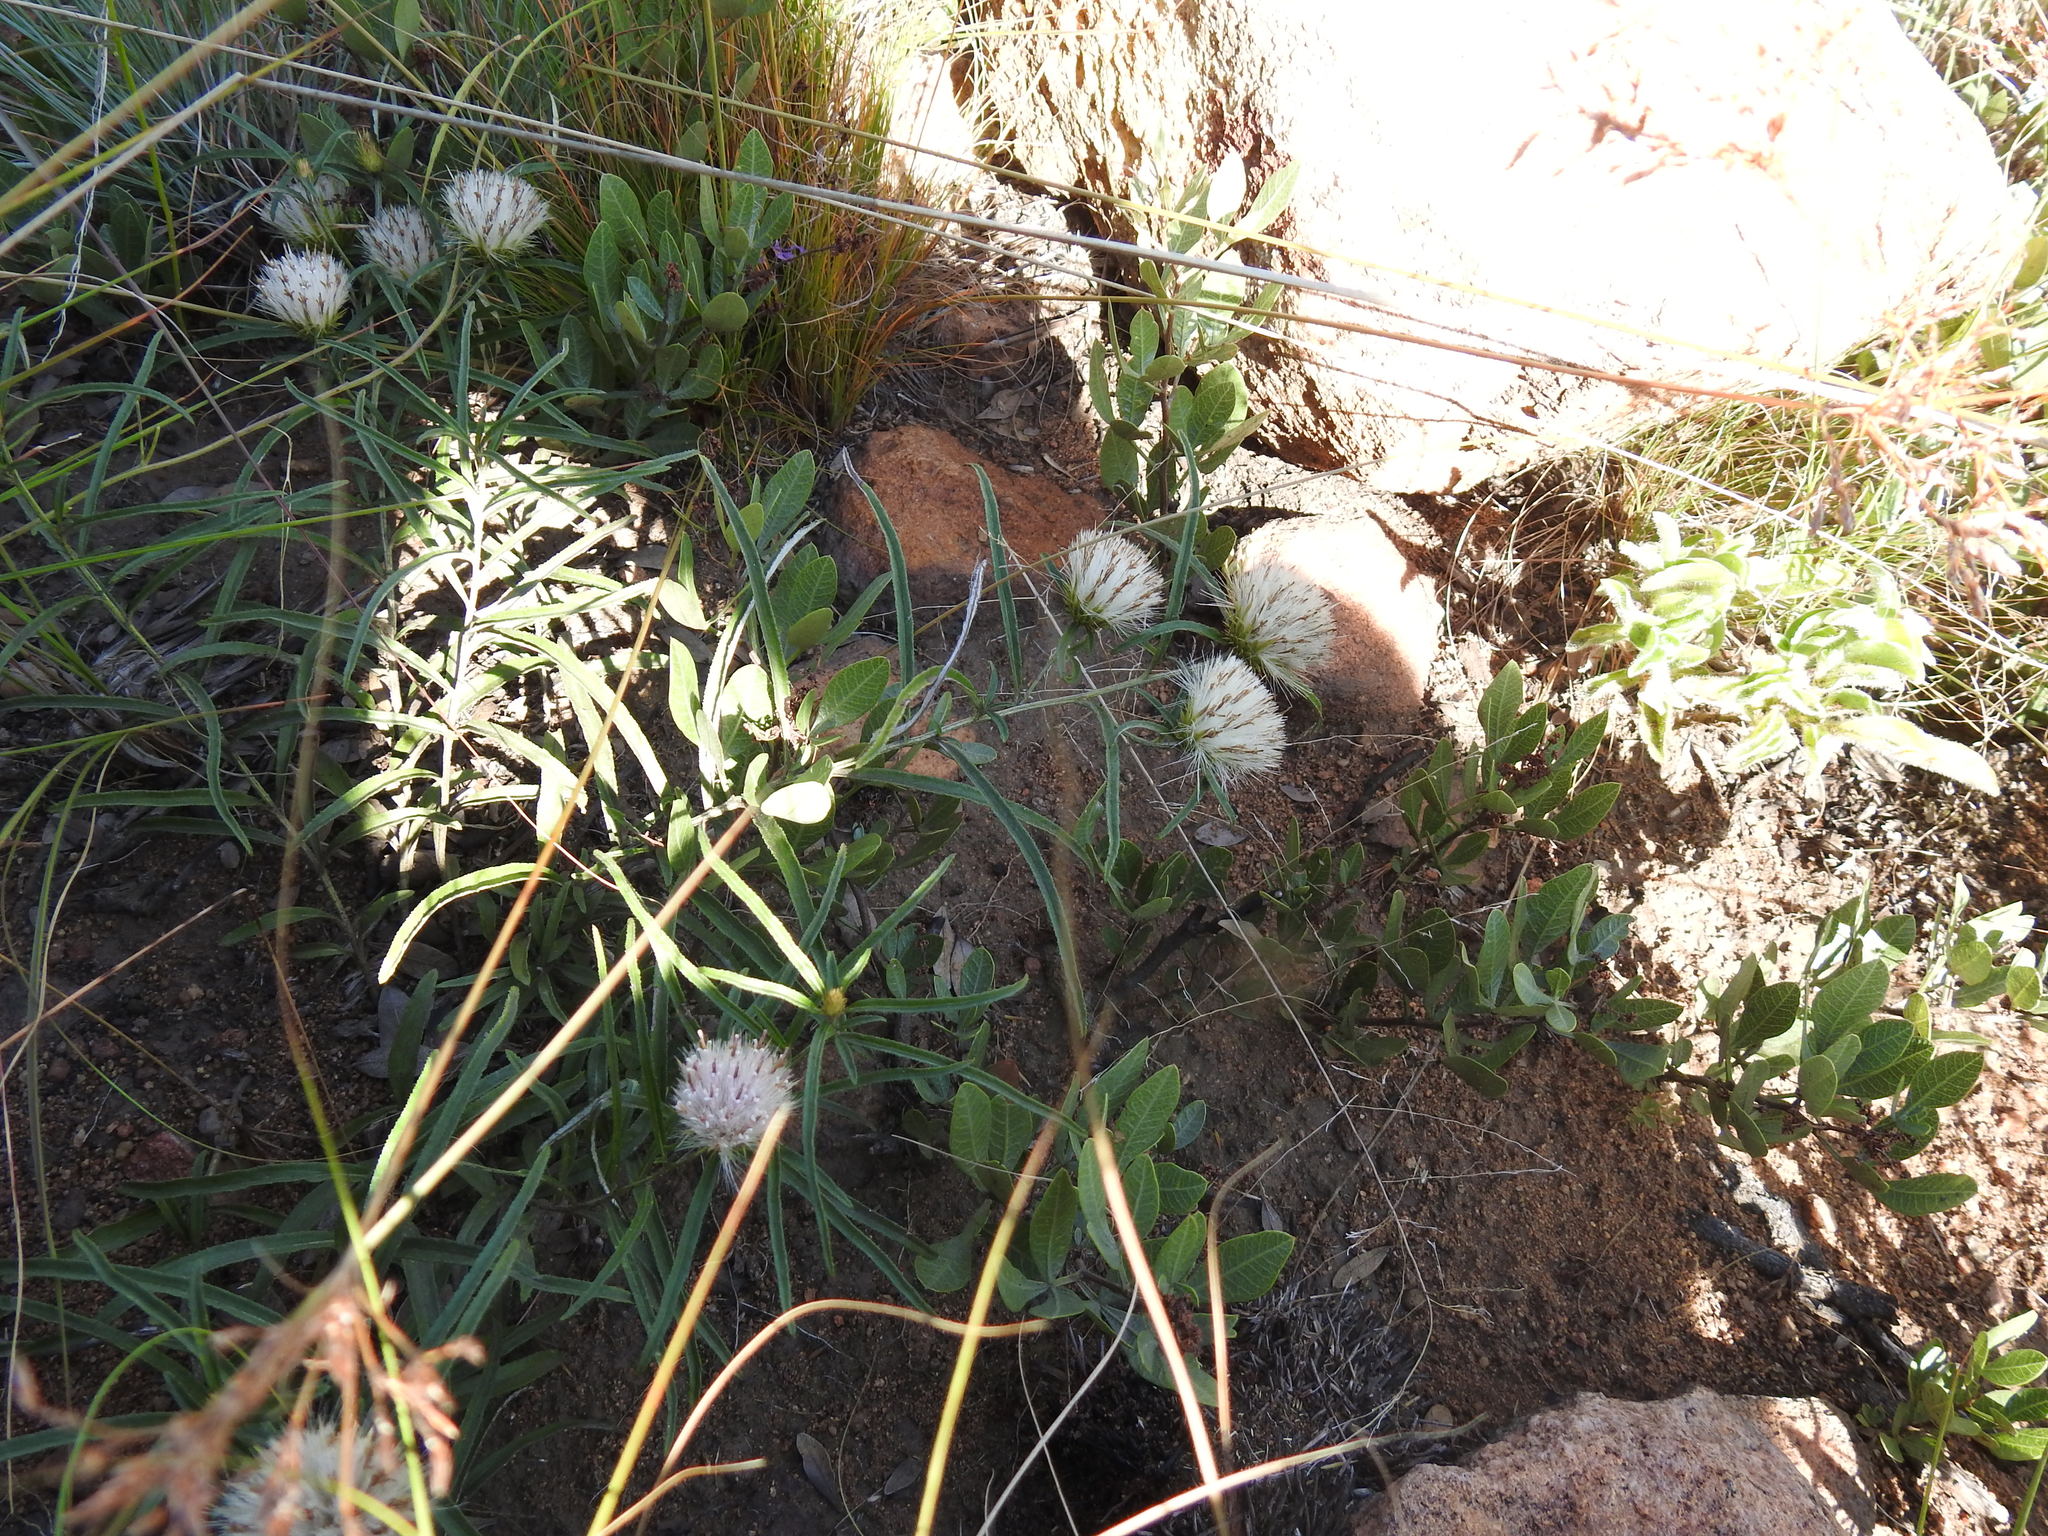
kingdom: Plantae
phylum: Tracheophyta
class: Magnoliopsida
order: Asterales
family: Asteraceae
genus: Dicoma
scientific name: Dicoma anomala
